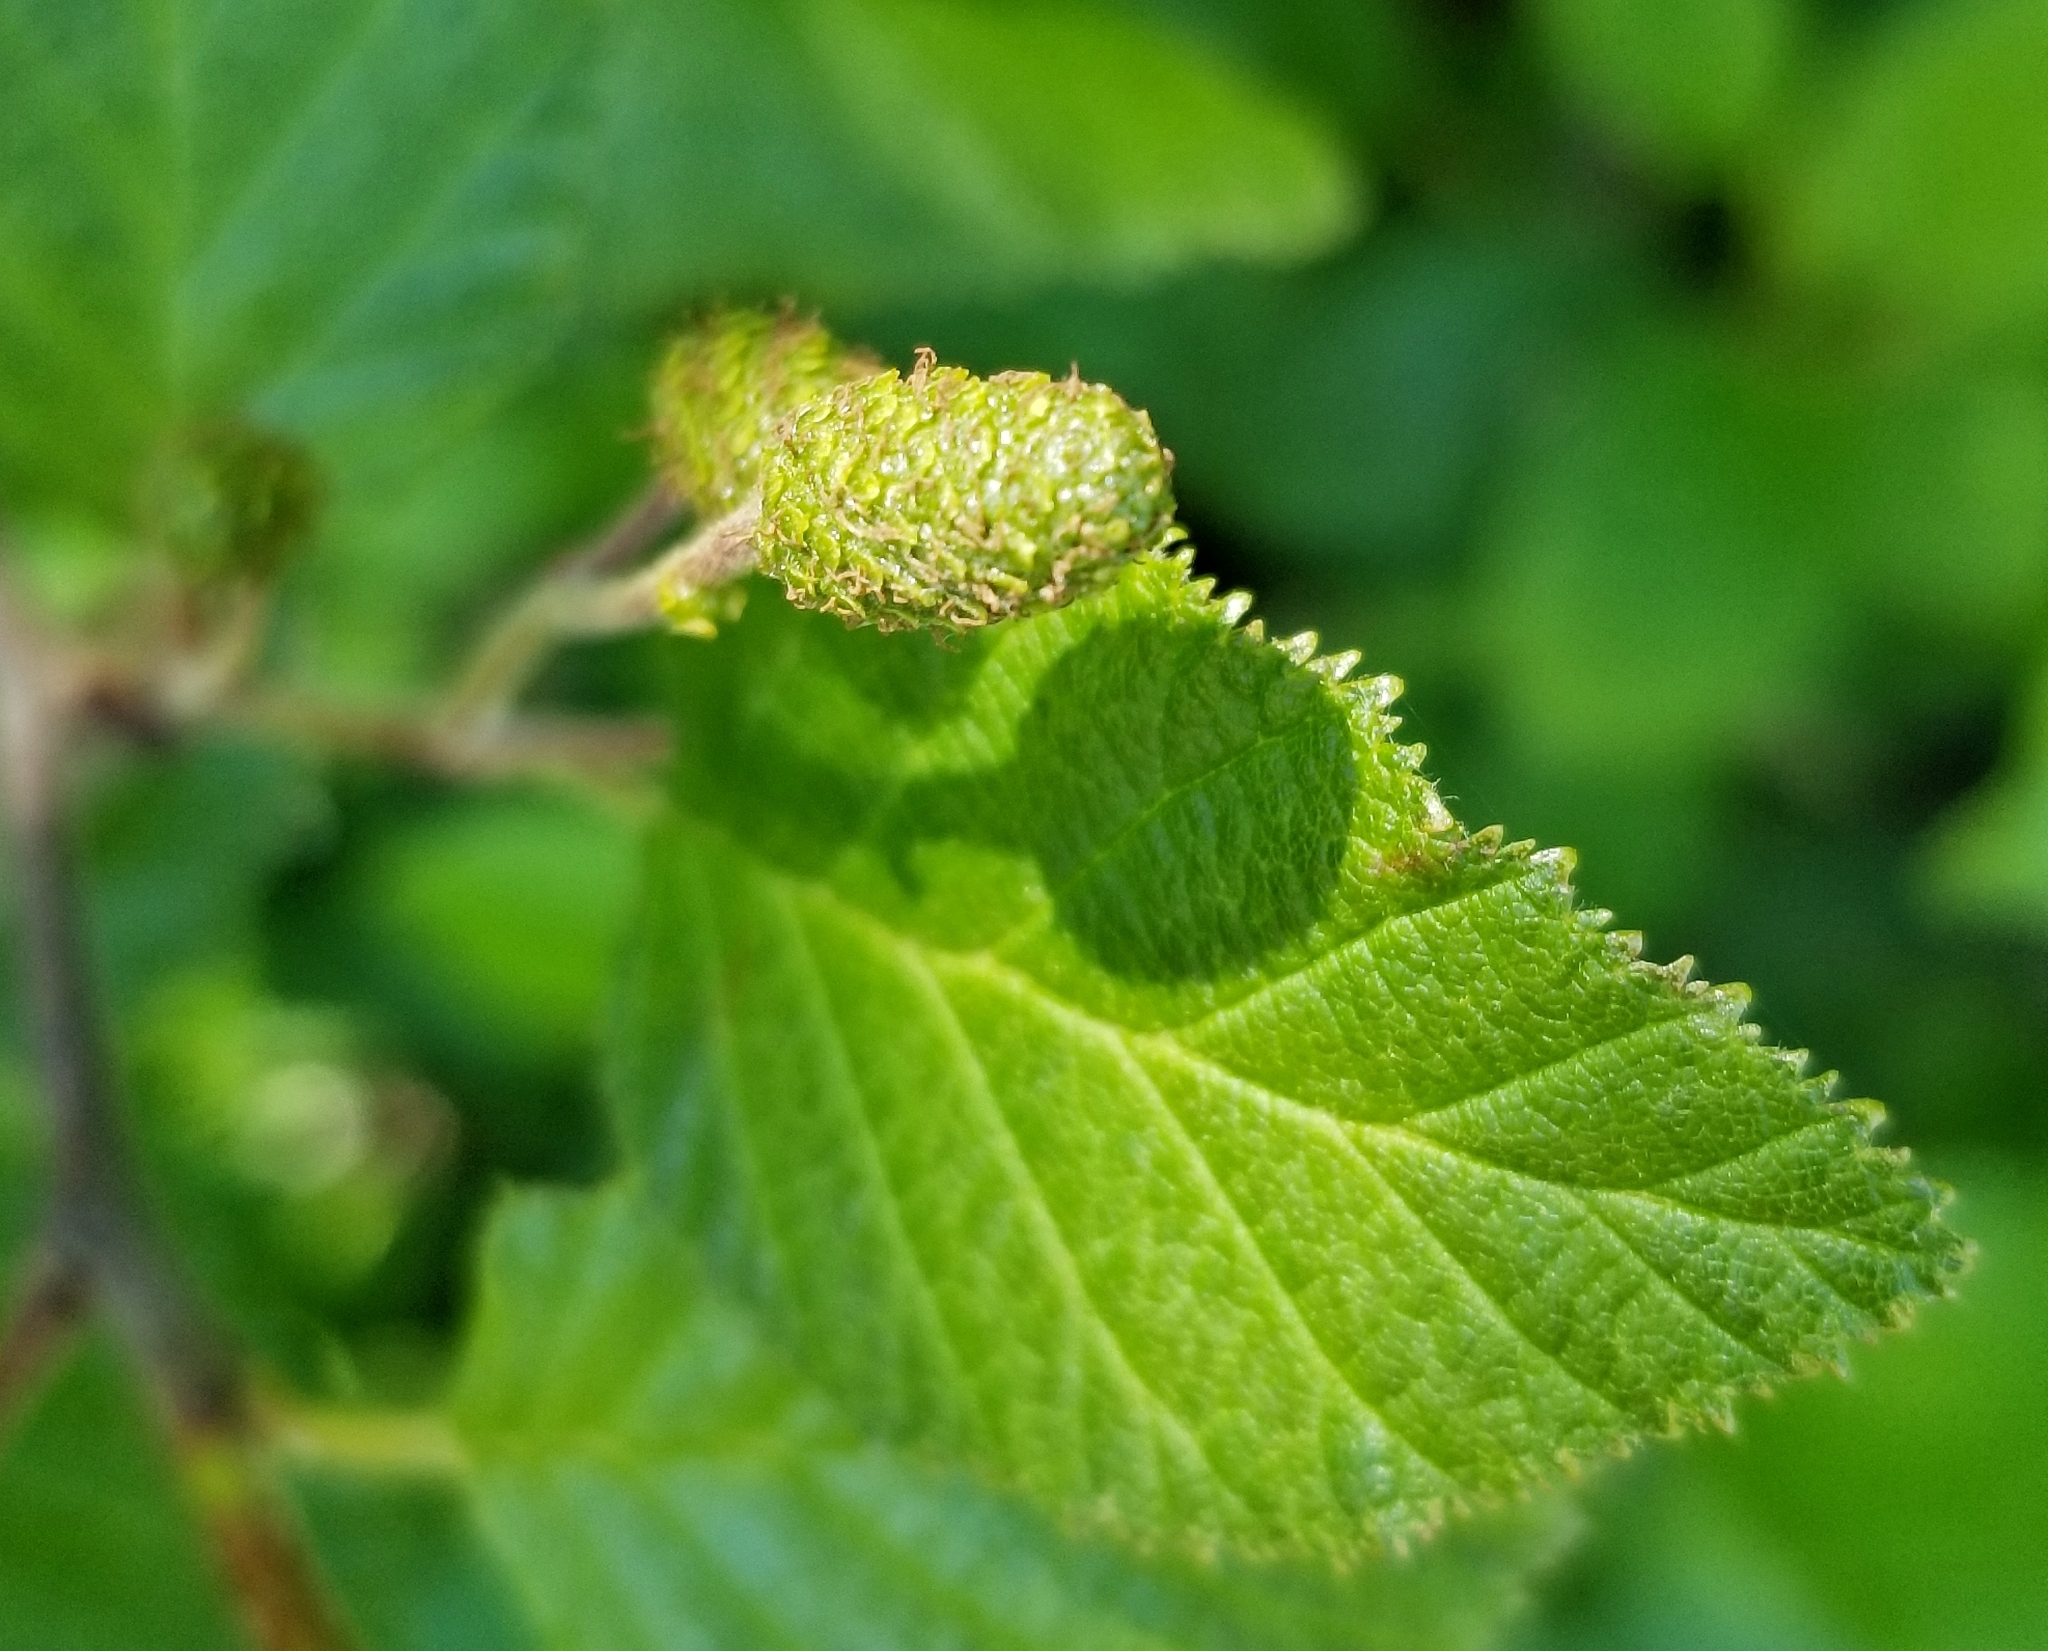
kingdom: Plantae
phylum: Tracheophyta
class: Magnoliopsida
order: Fagales
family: Betulaceae
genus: Alnus
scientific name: Alnus alnobetula
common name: Green alder
